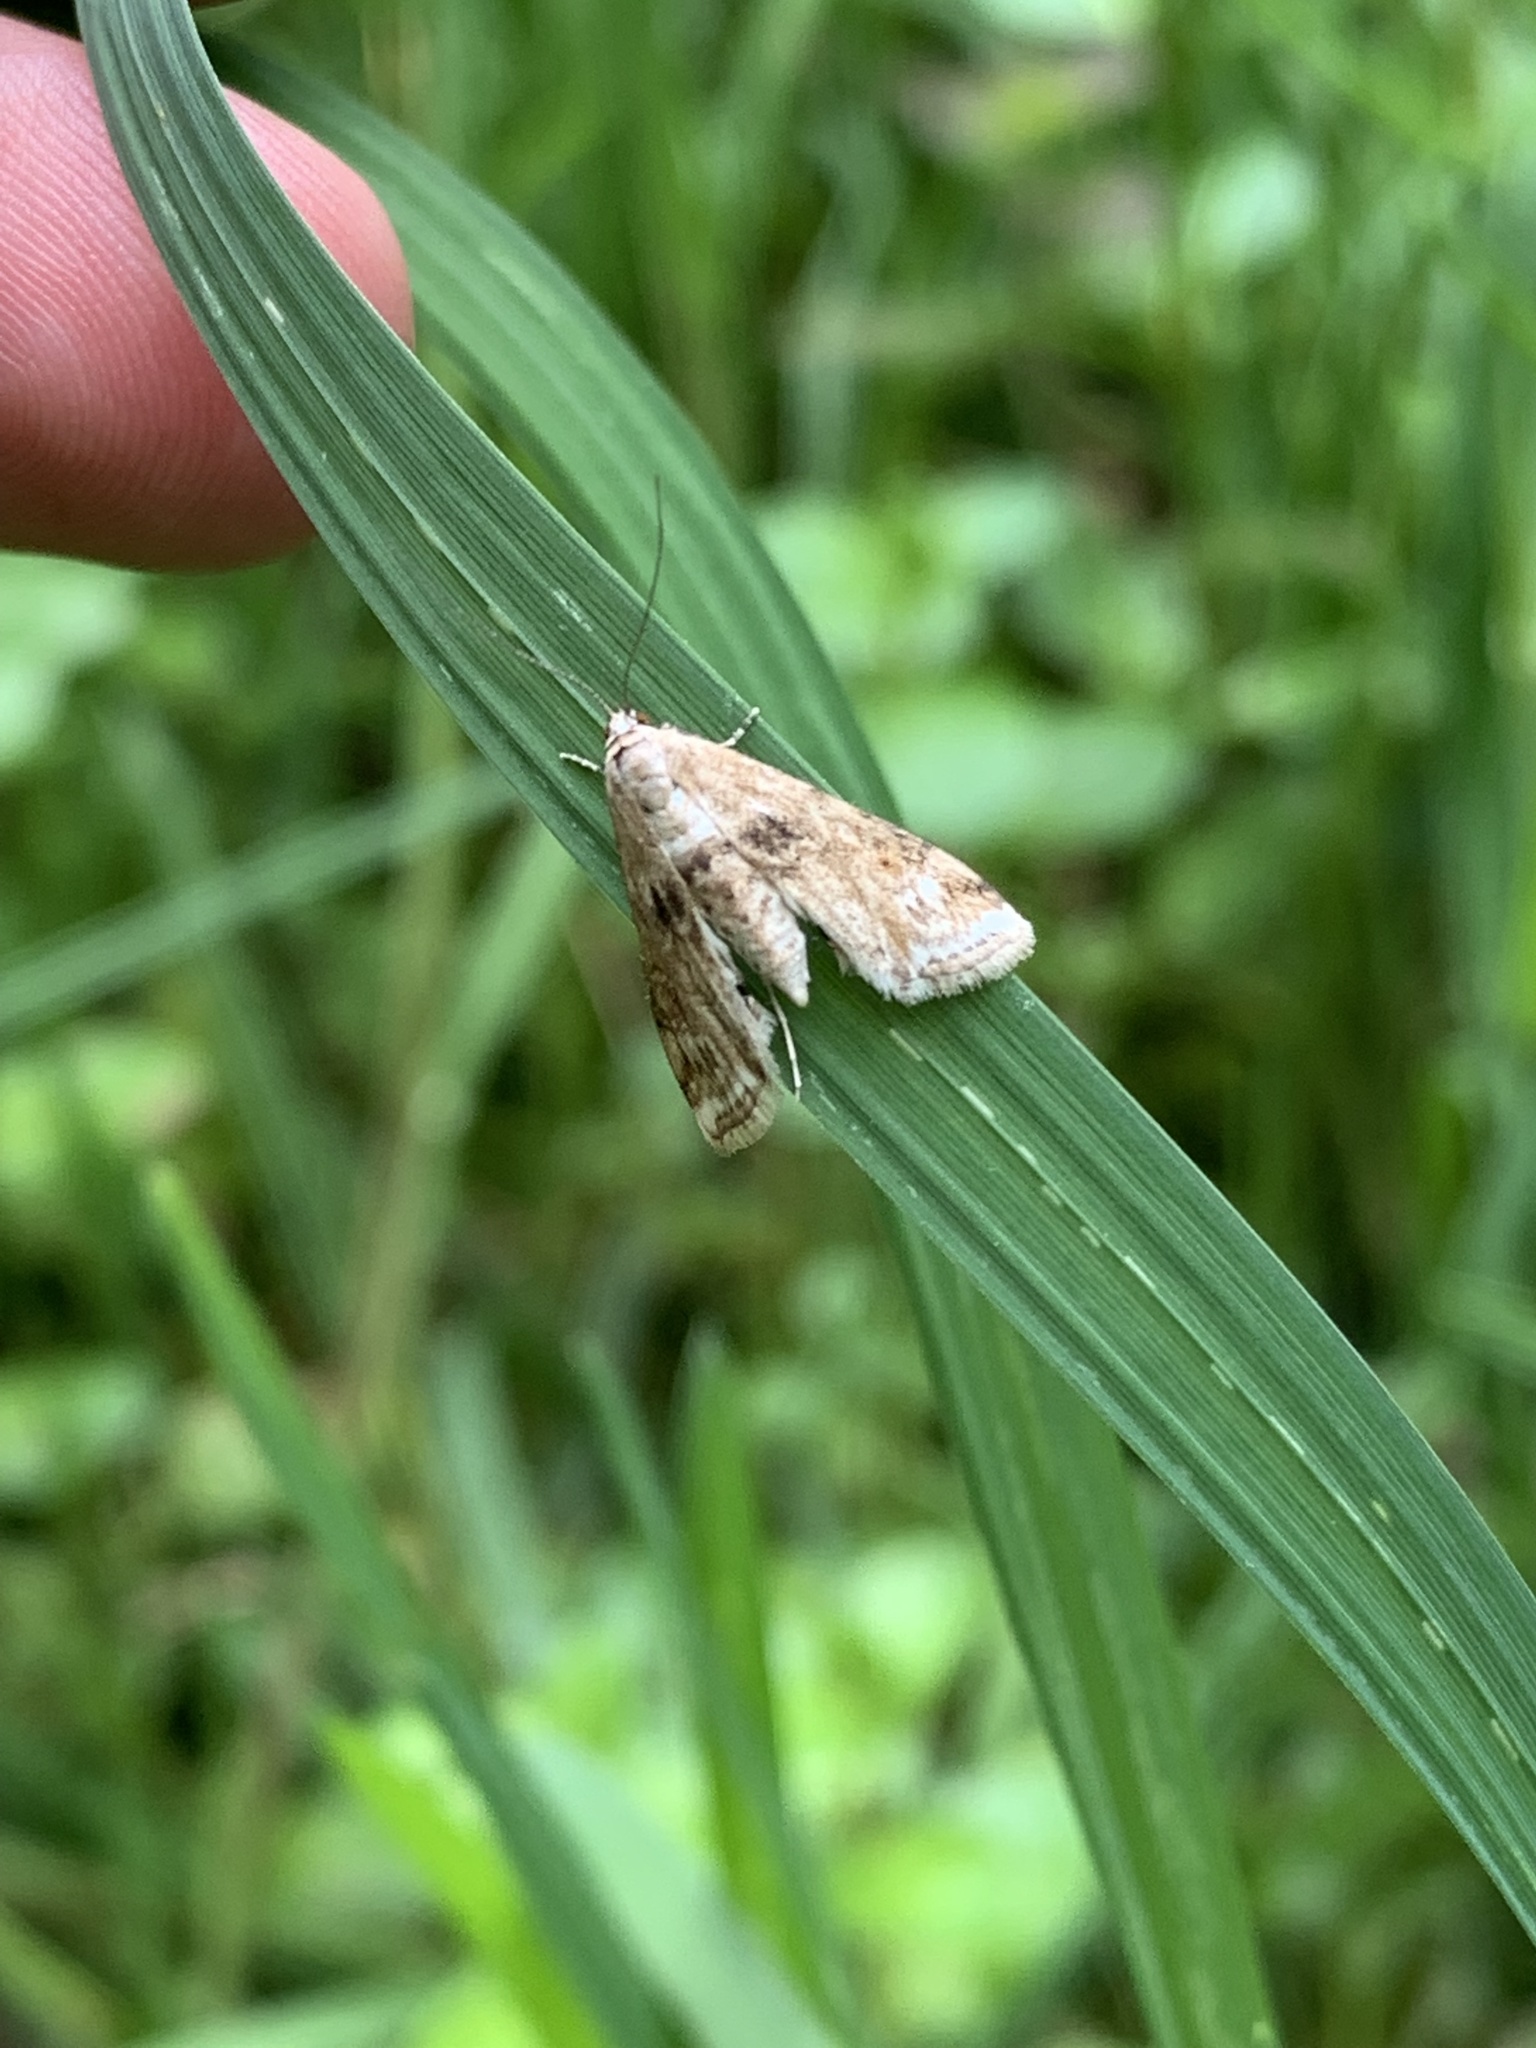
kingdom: Animalia
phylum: Arthropoda
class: Insecta
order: Lepidoptera
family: Crambidae
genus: Cataclysta
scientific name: Cataclysta lemnata
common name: Small china-mark
